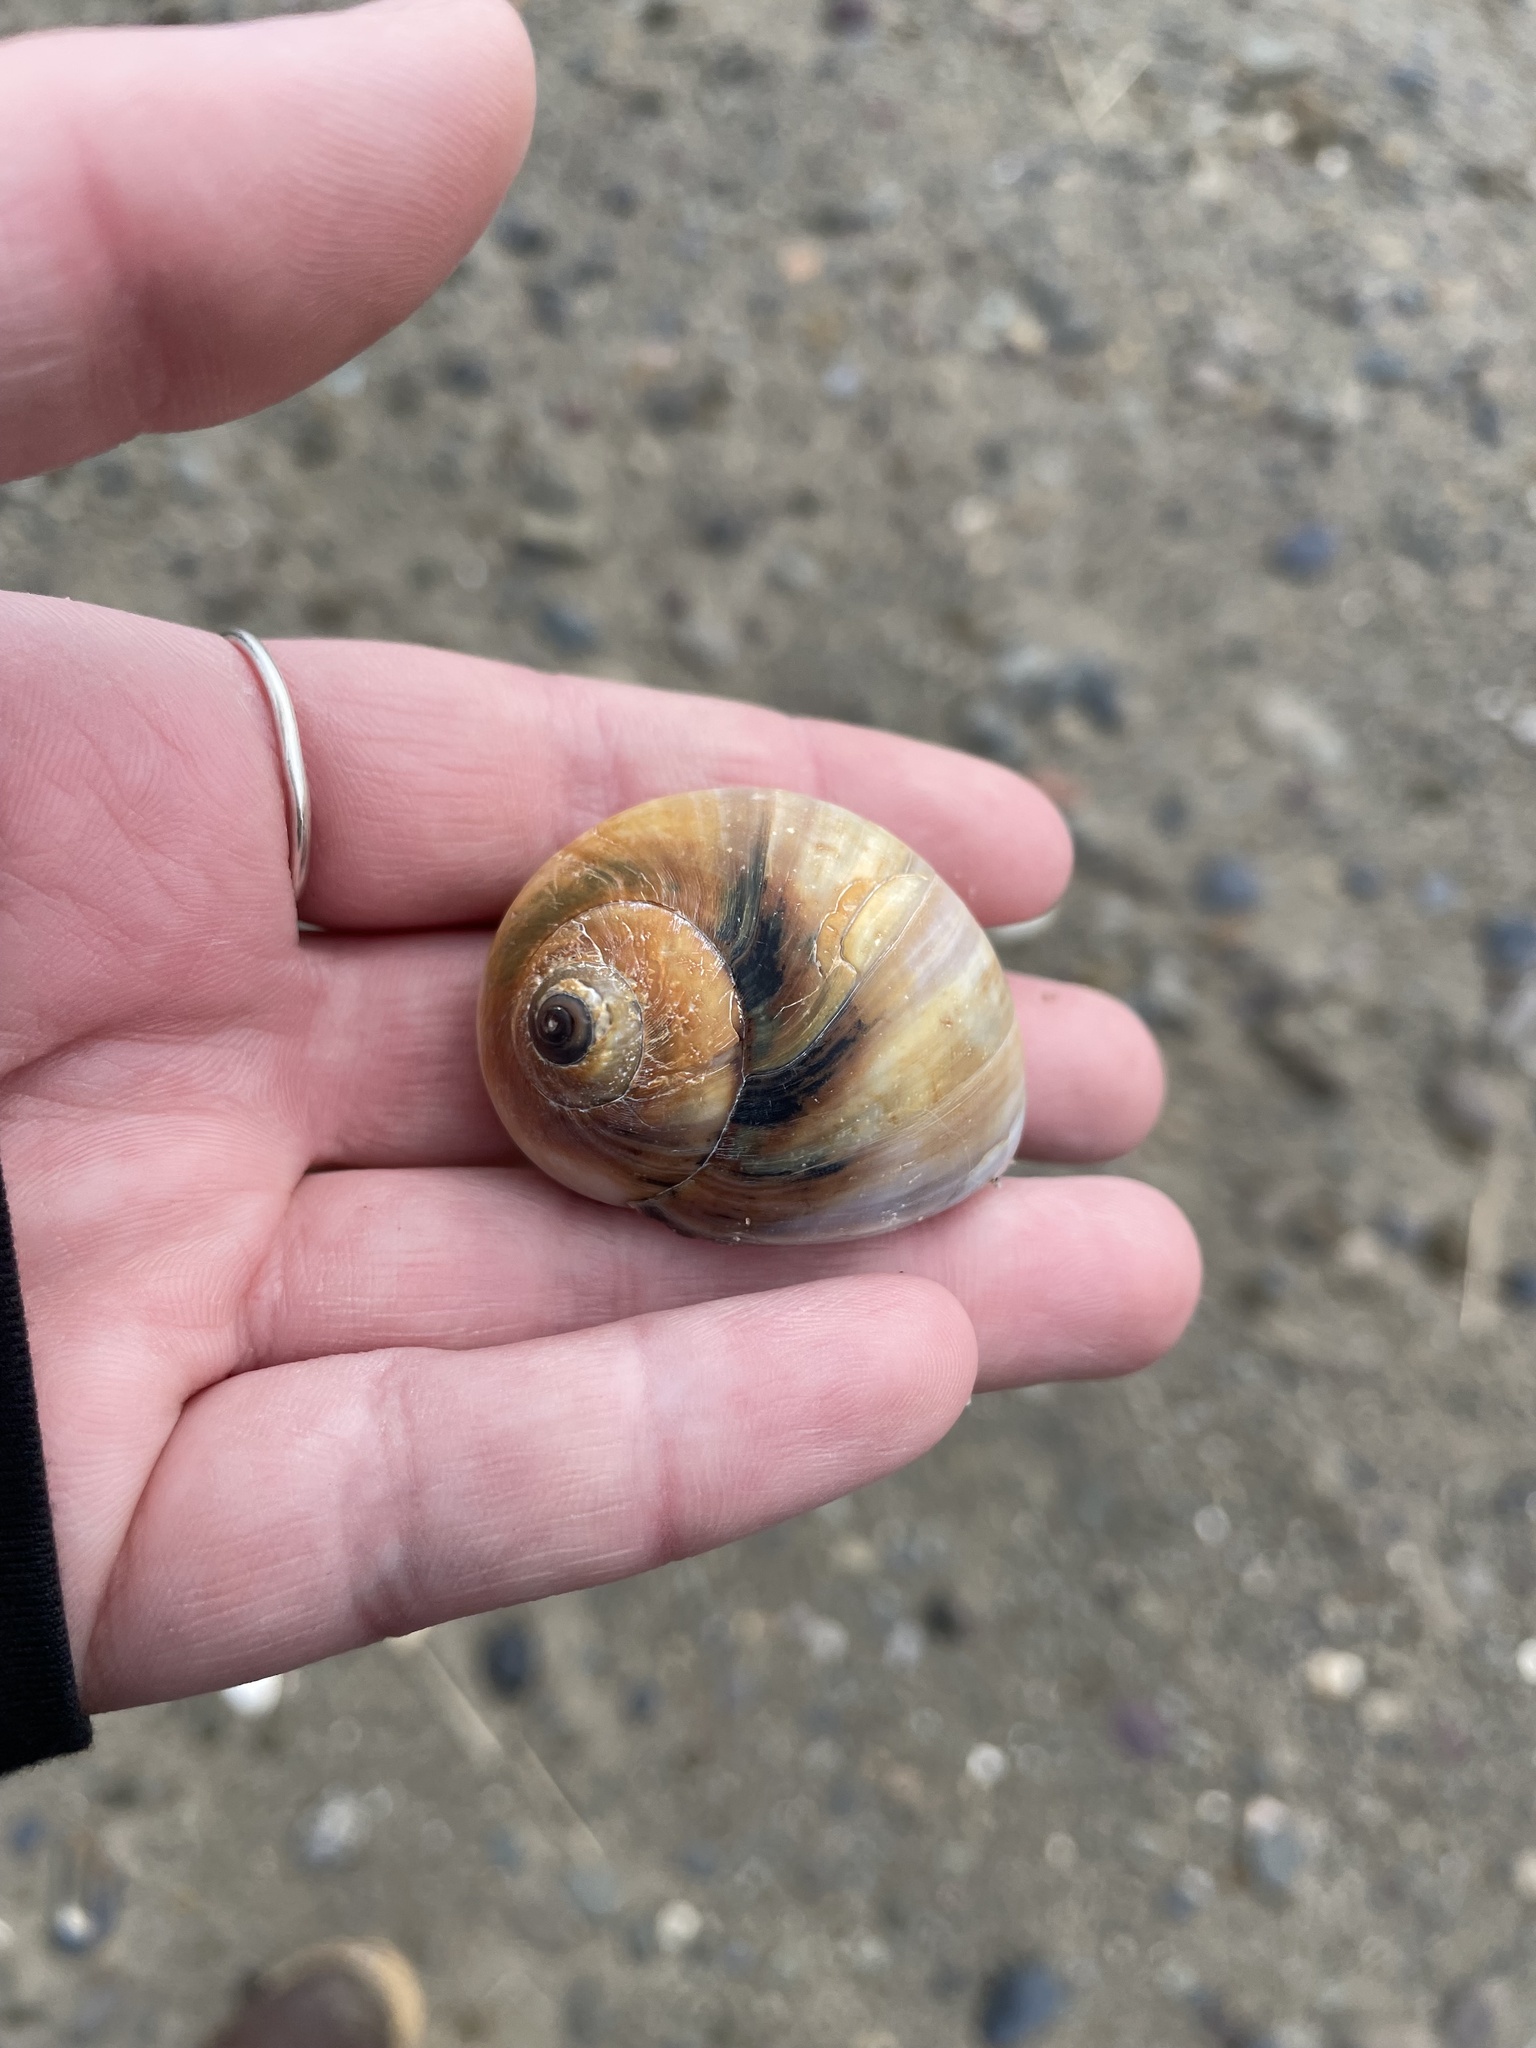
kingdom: Animalia
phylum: Mollusca
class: Gastropoda
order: Littorinimorpha
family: Naticidae
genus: Euspira
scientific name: Euspira heros
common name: Common northern moonsnail
